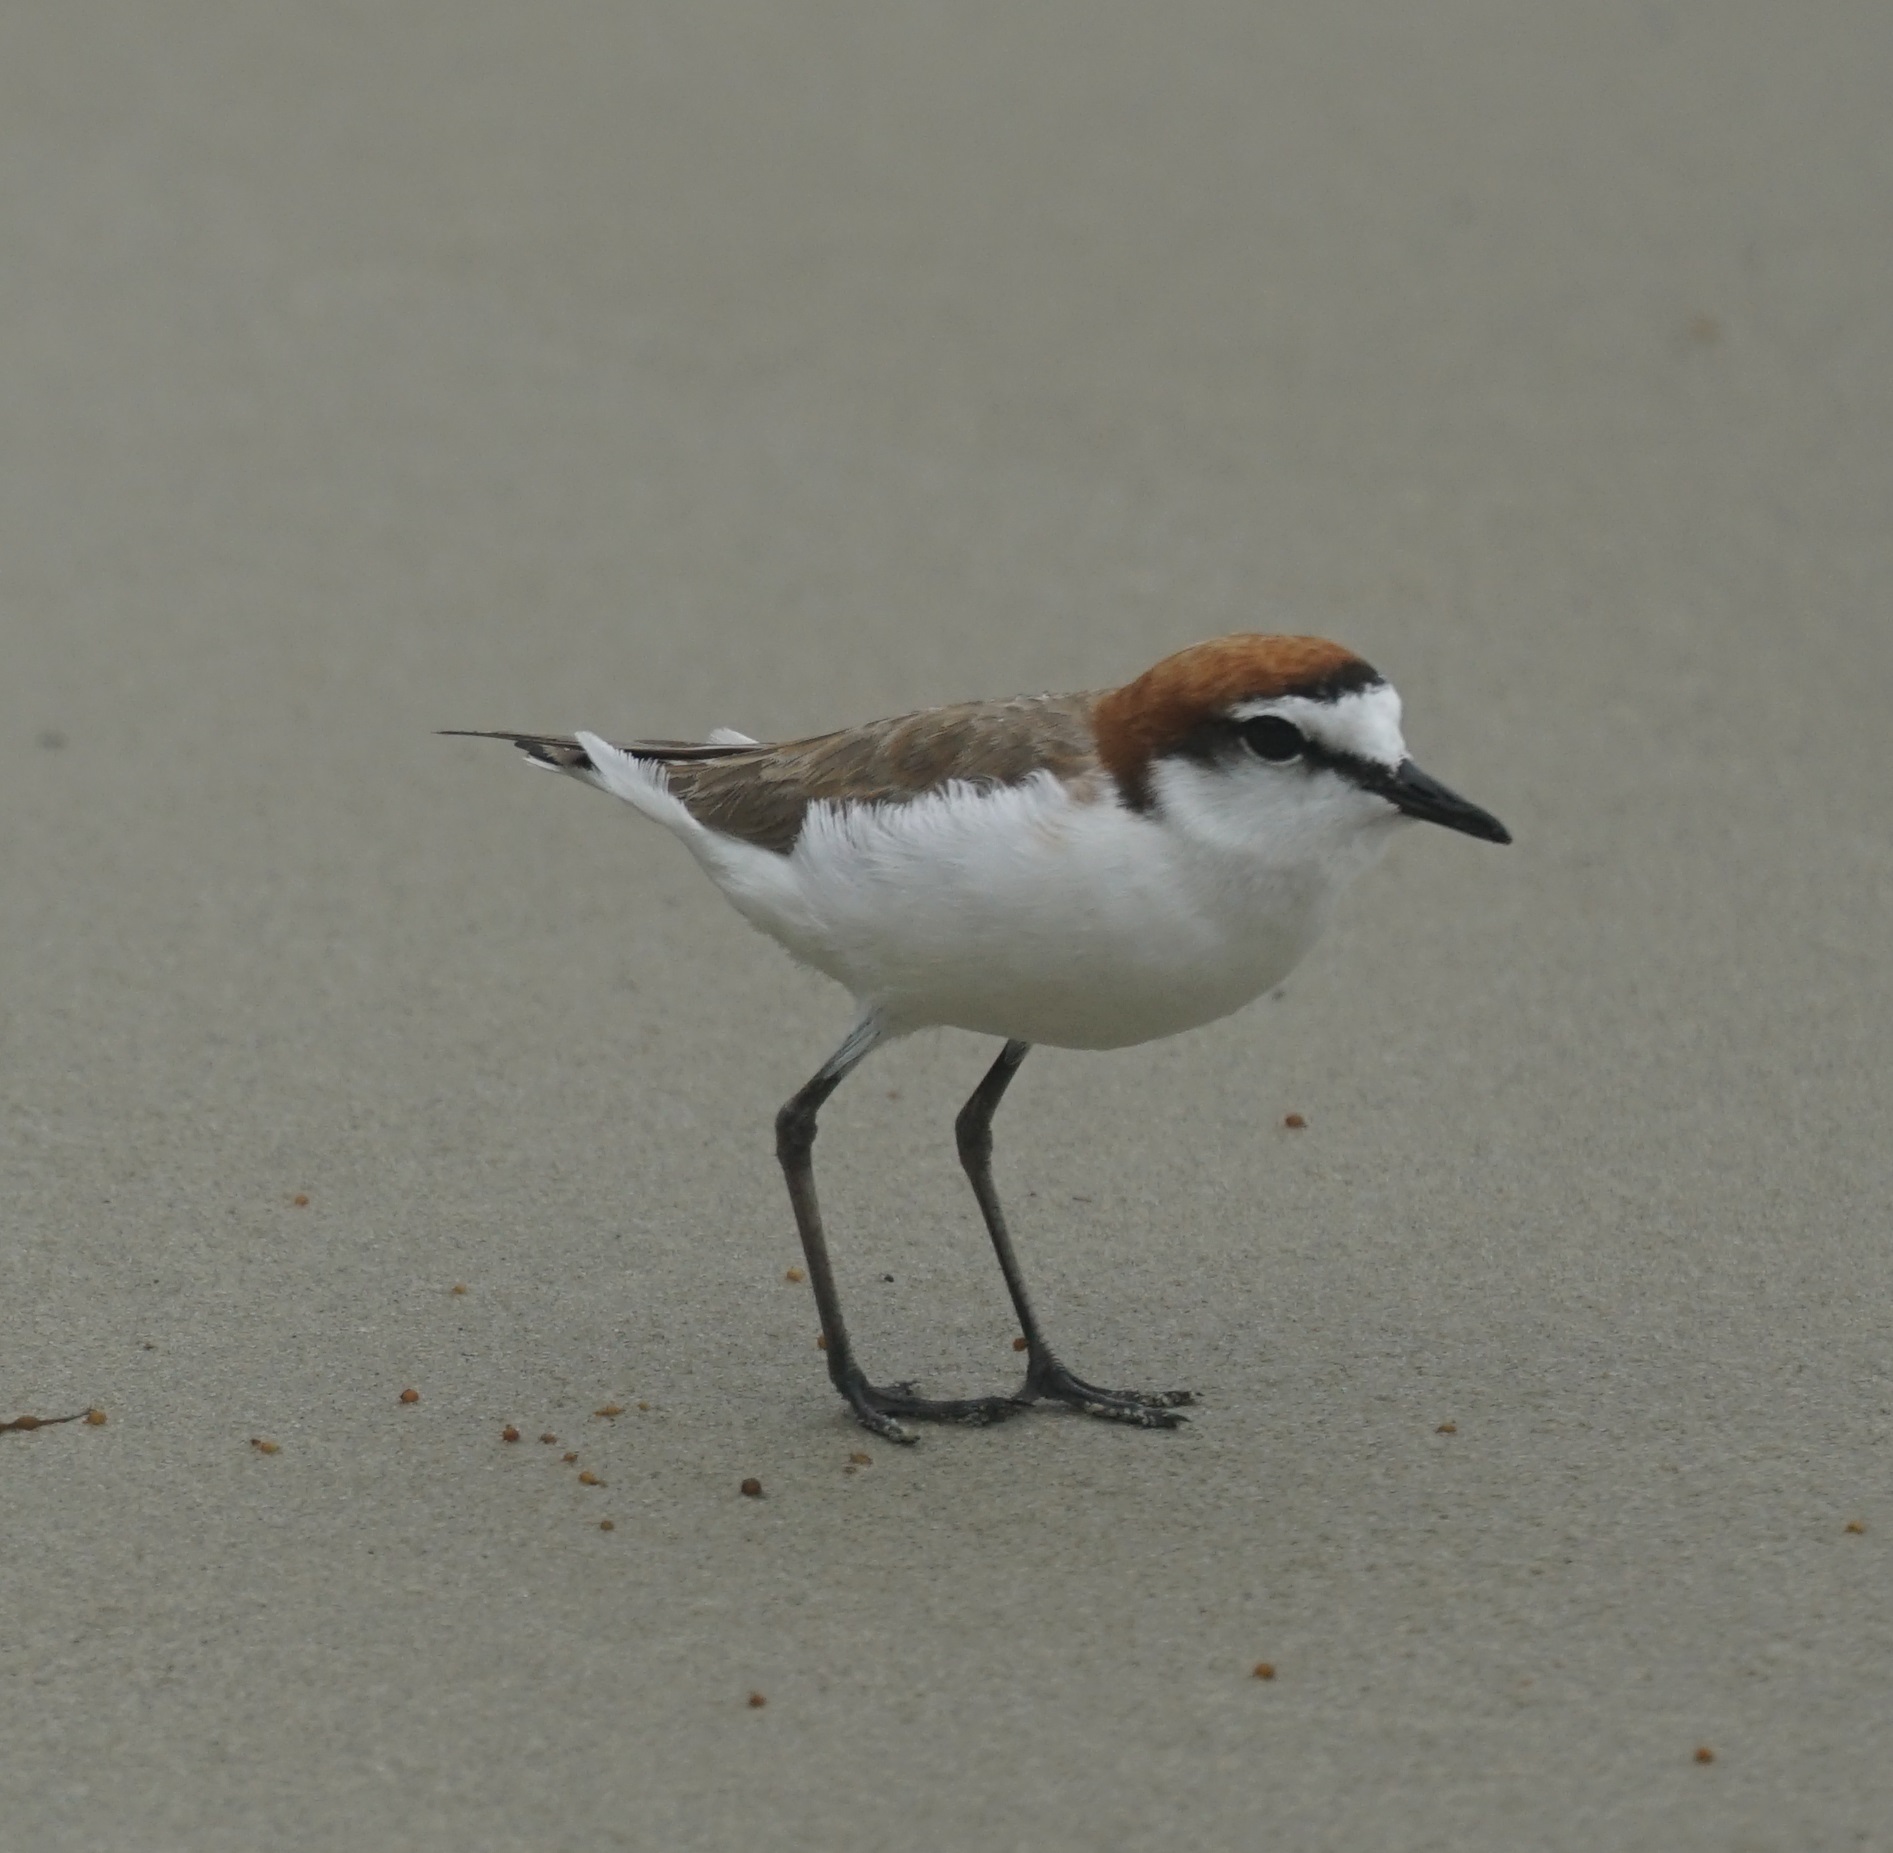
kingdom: Animalia
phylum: Chordata
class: Aves
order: Charadriiformes
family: Charadriidae
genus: Anarhynchus
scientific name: Anarhynchus
